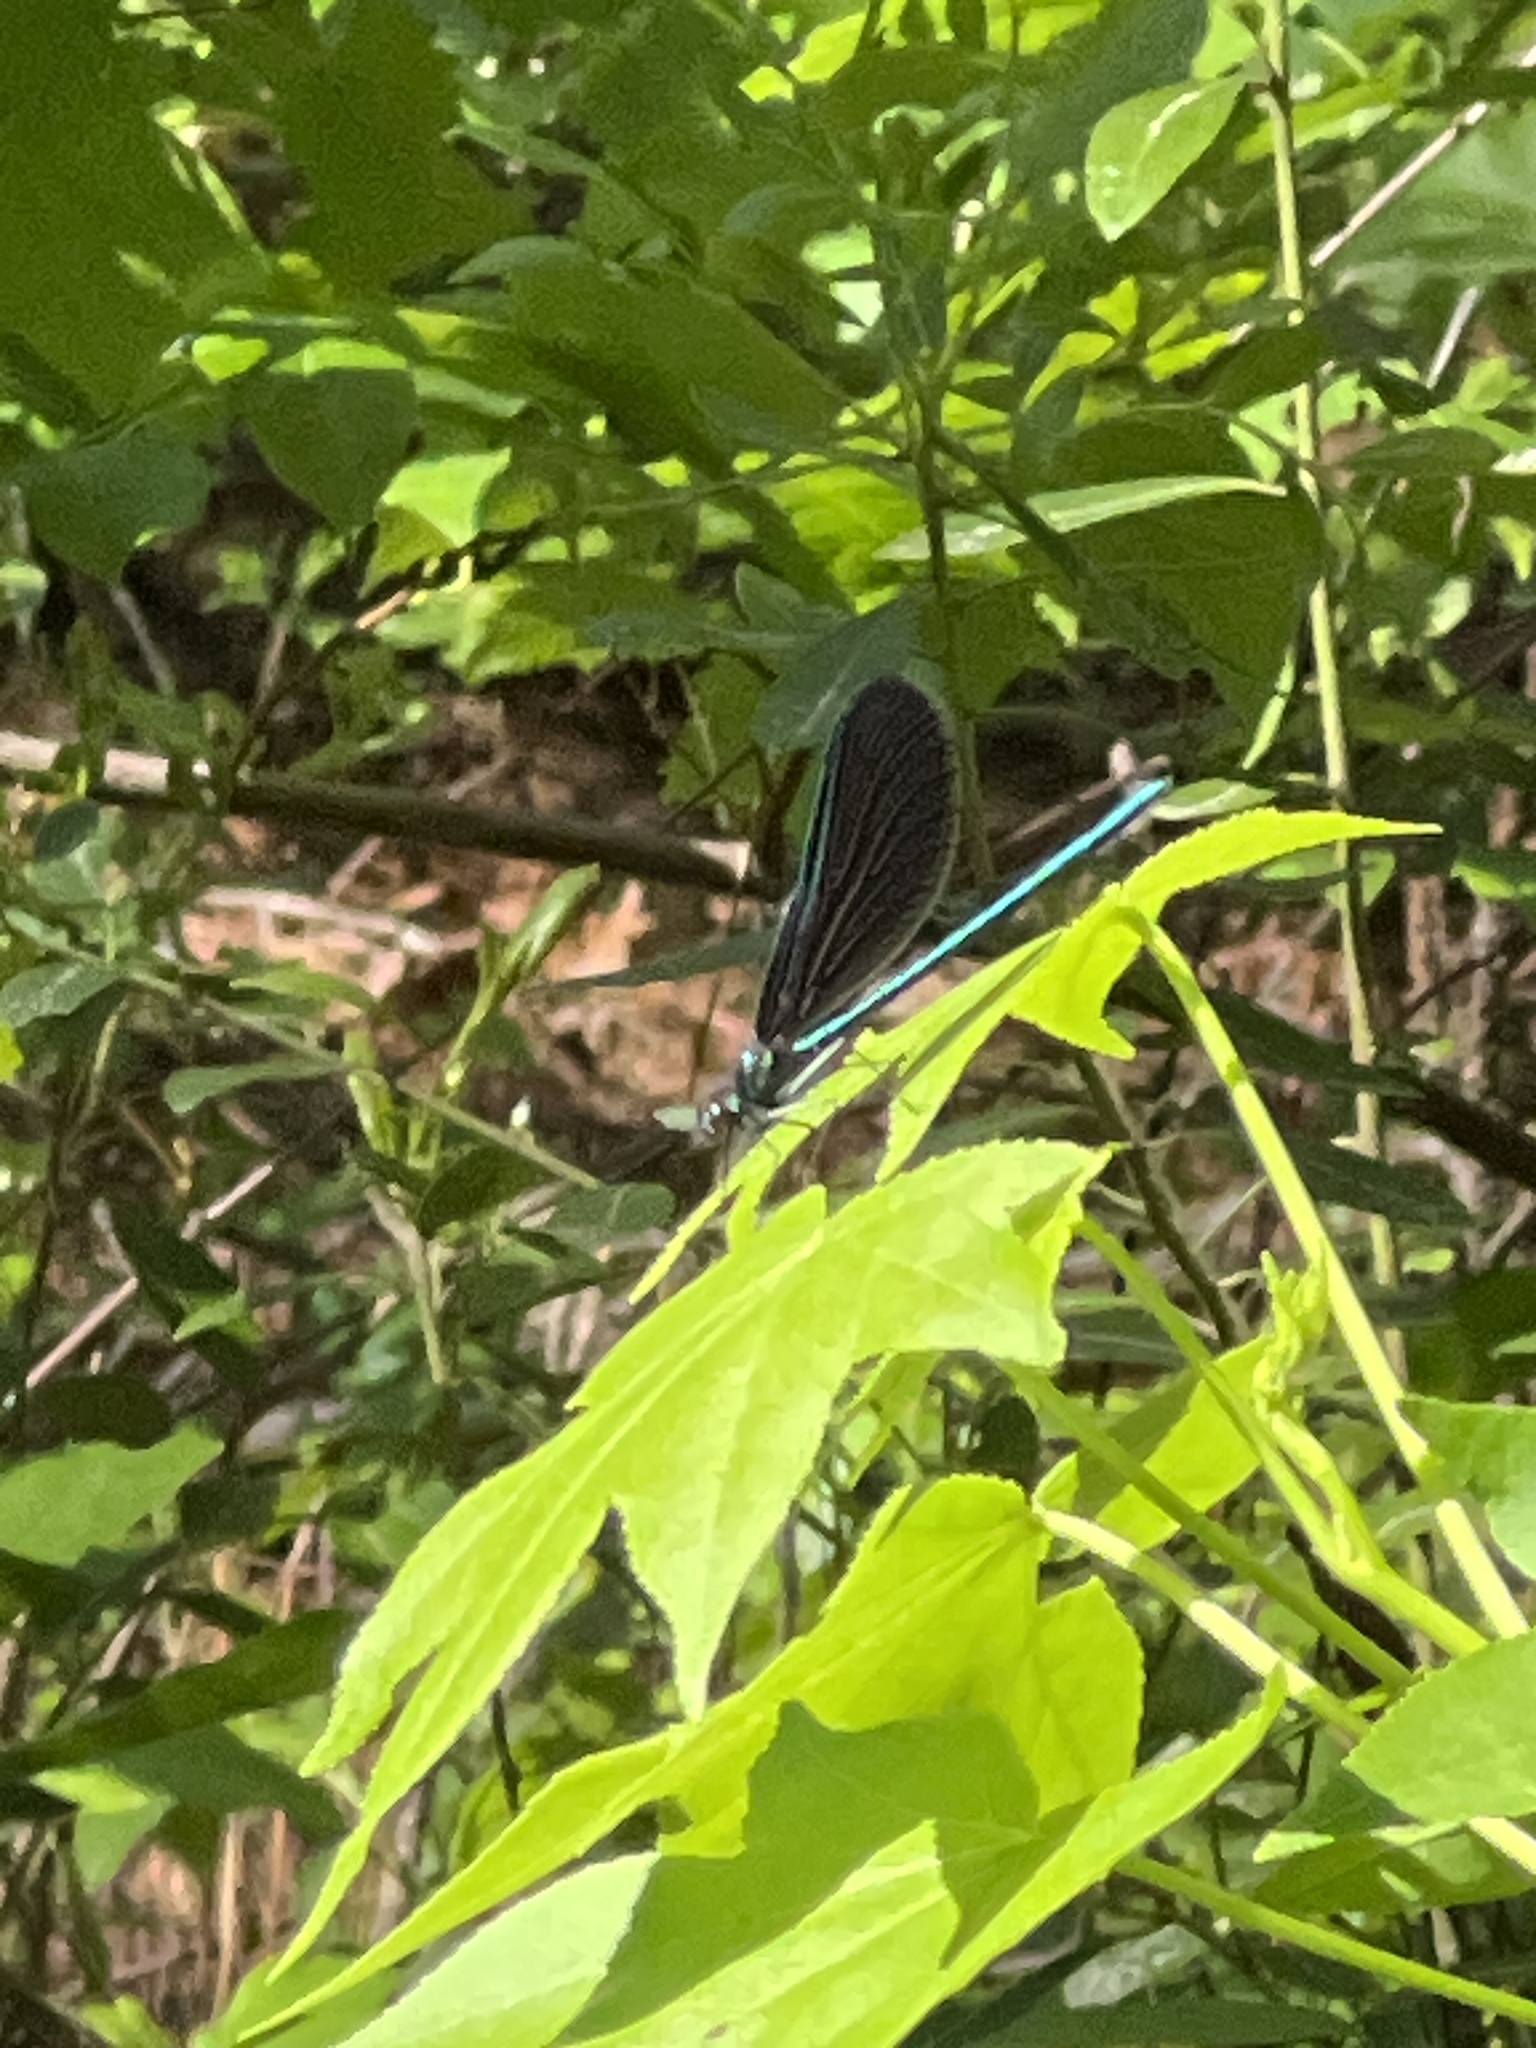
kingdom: Animalia
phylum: Arthropoda
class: Insecta
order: Odonata
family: Calopterygidae
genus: Calopteryx
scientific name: Calopteryx maculata
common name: Ebony jewelwing
